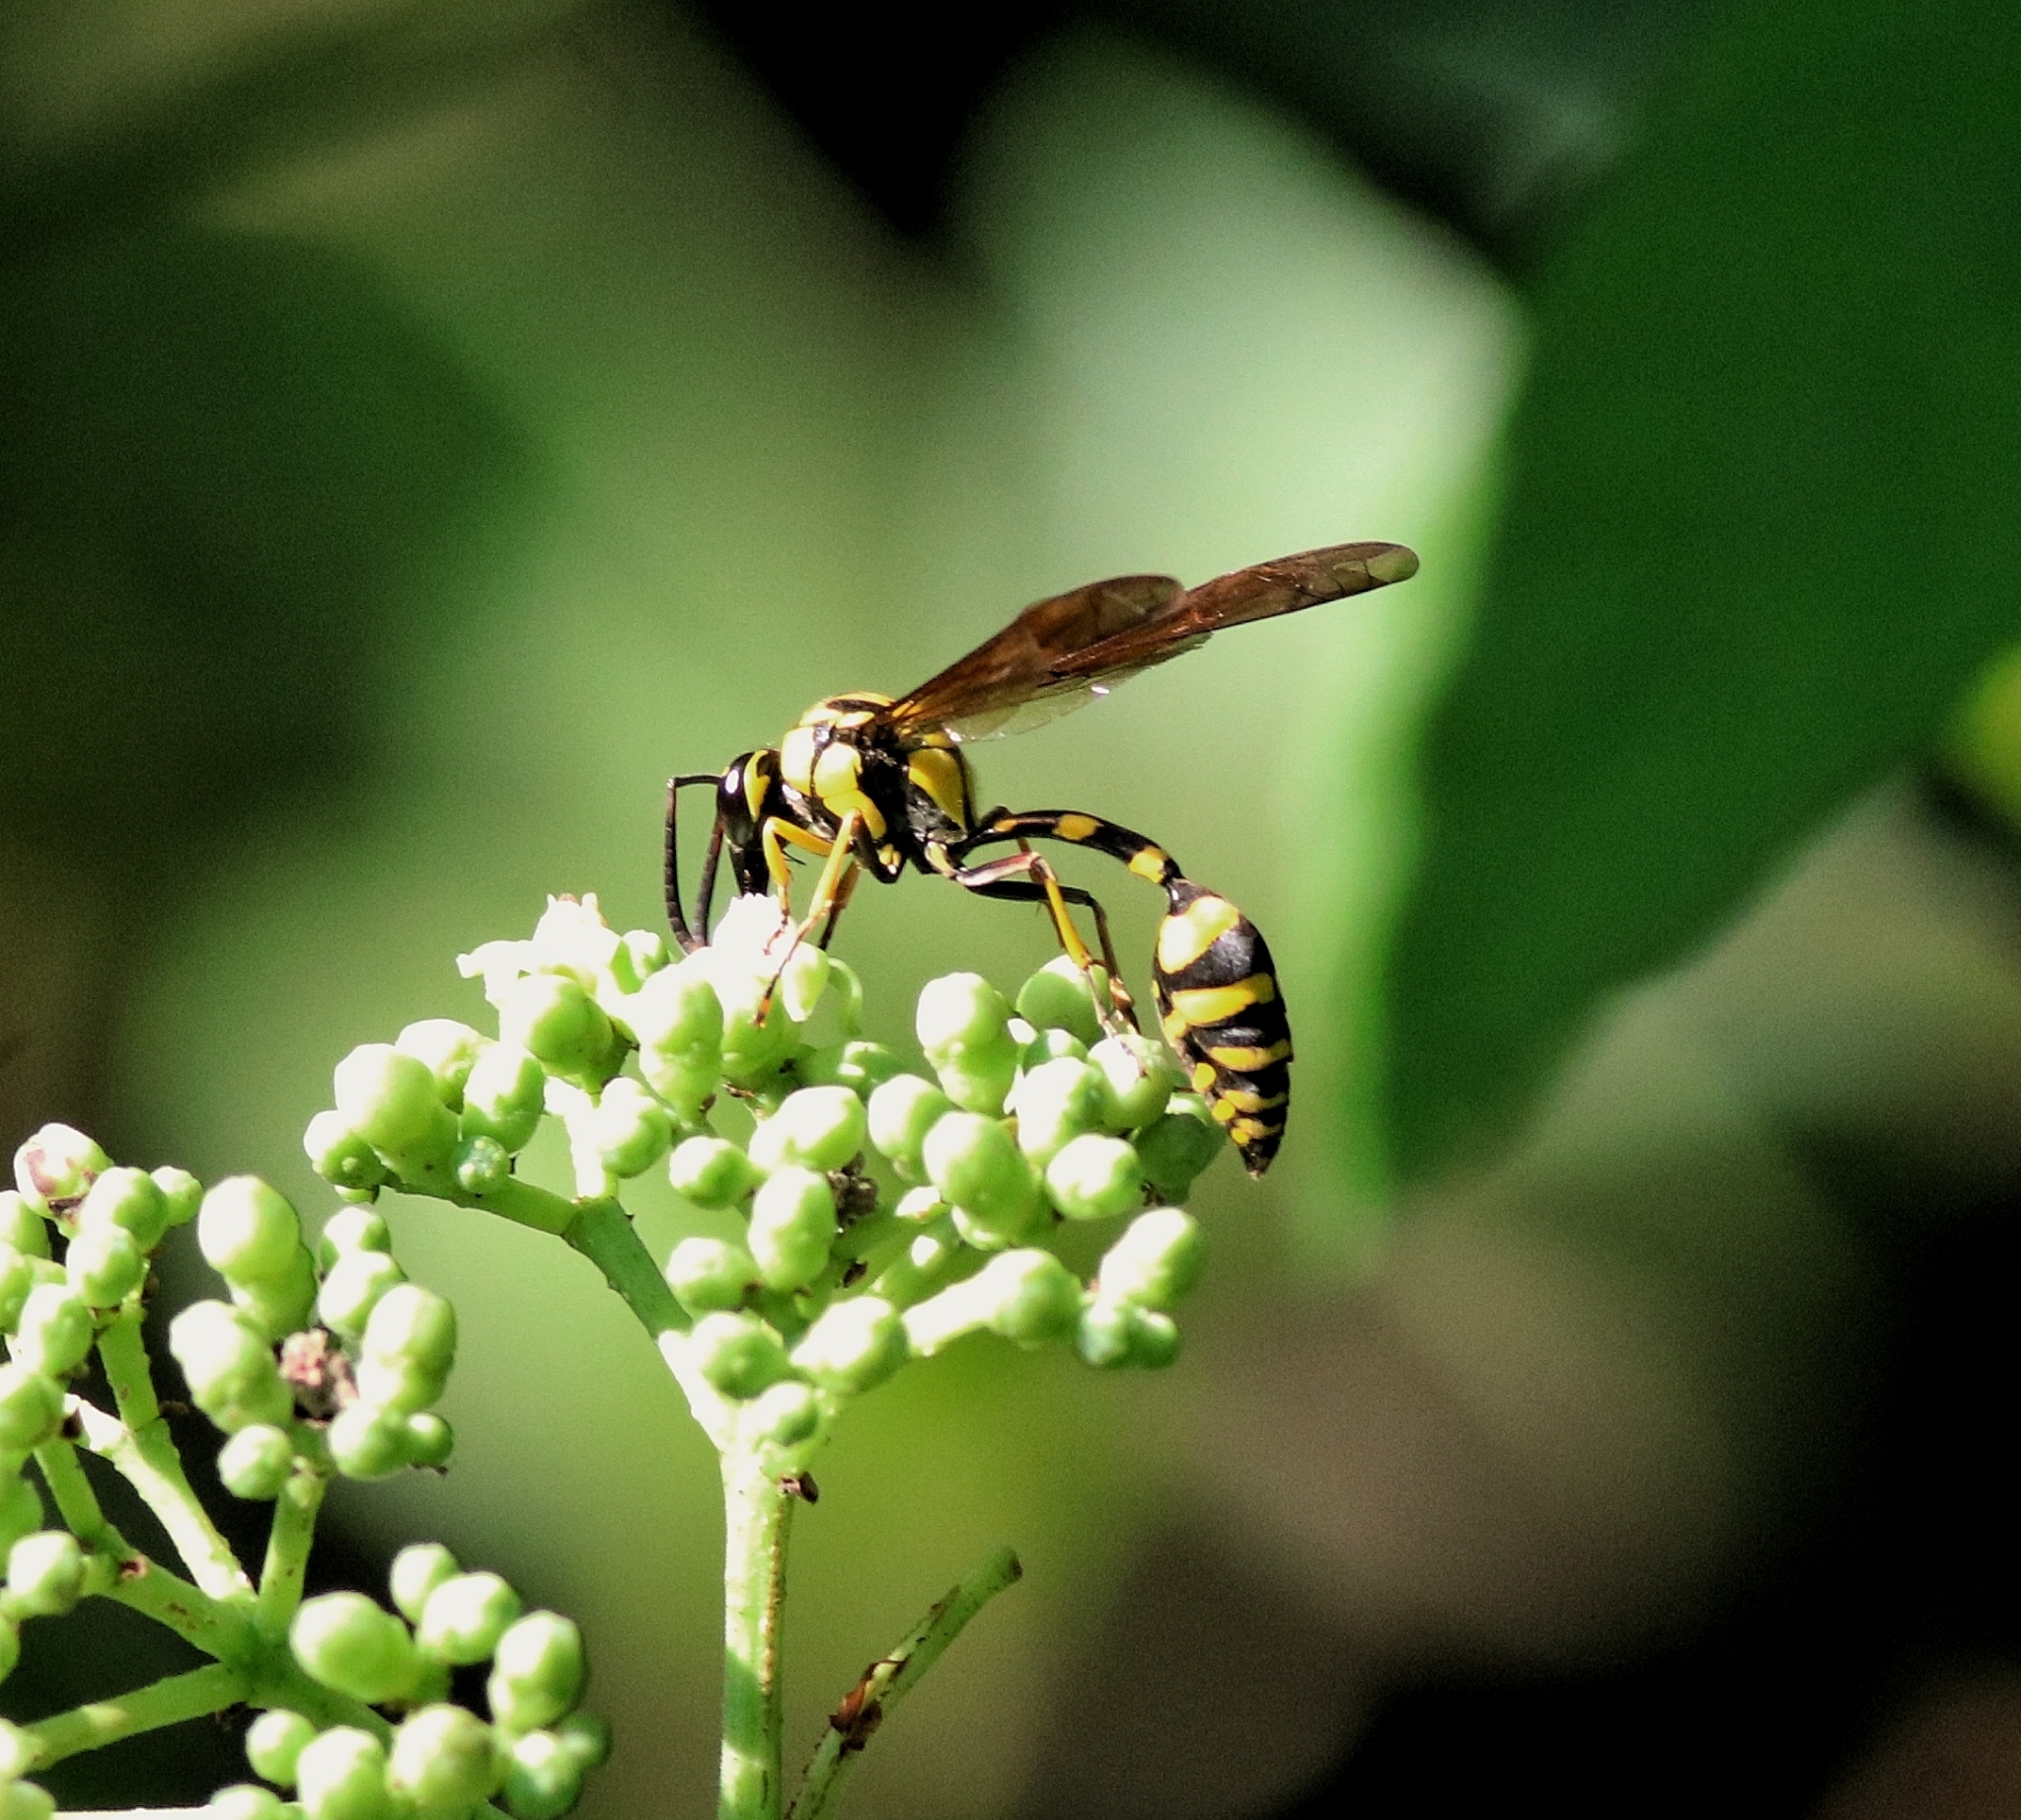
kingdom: Animalia
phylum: Arthropoda
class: Insecta
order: Hymenoptera
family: Eumenidae
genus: Phimenes
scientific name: Phimenes flavopictus
